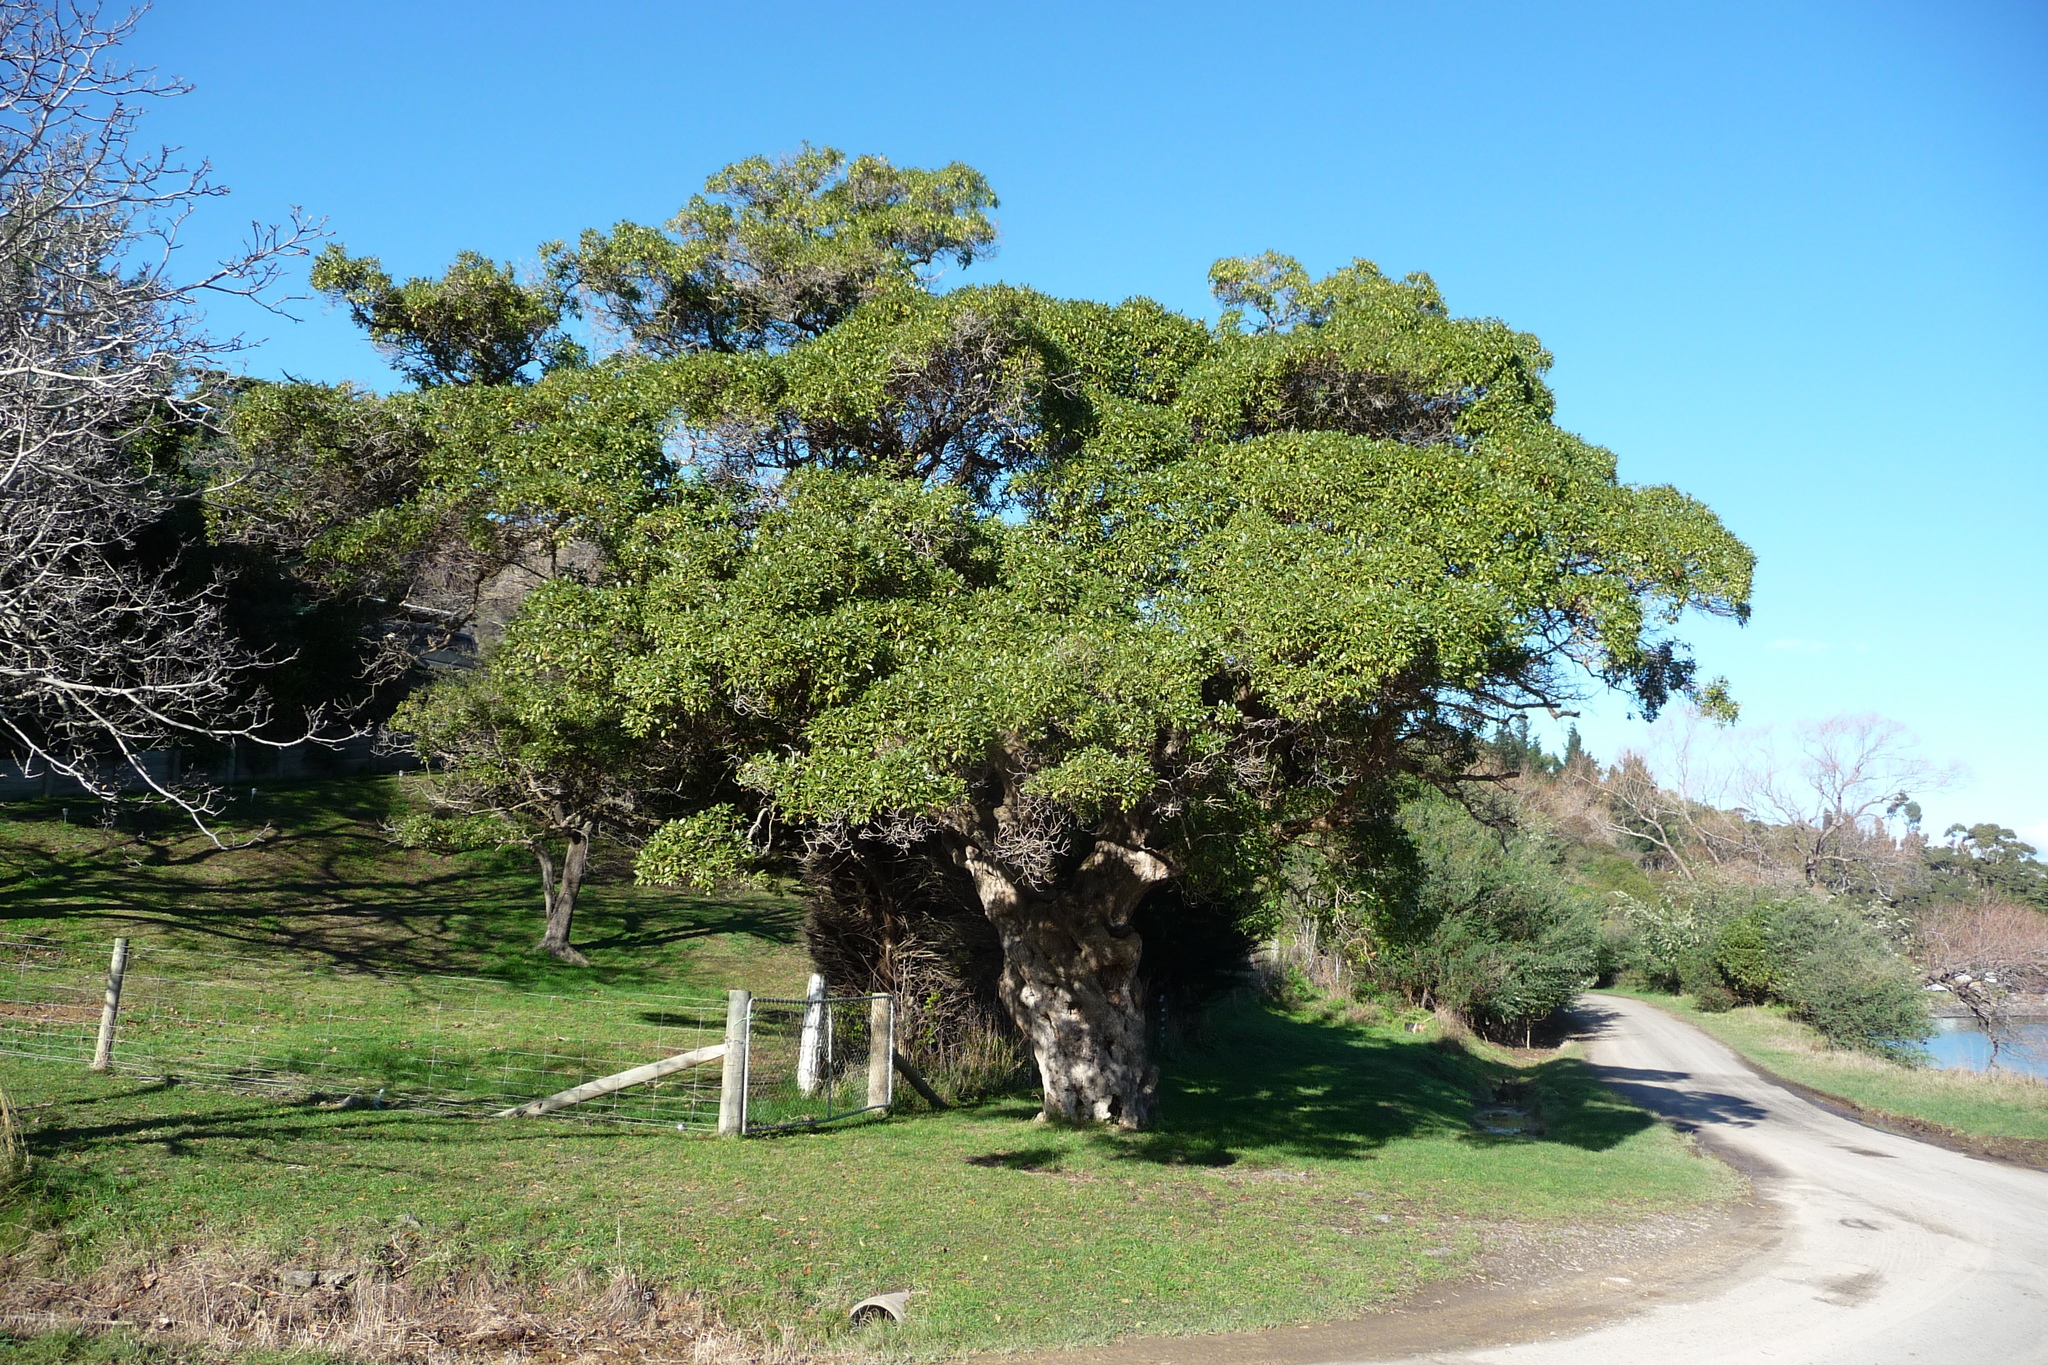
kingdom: Plantae
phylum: Tracheophyta
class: Magnoliopsida
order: Lamiales
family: Scrophulariaceae
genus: Myoporum
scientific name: Myoporum laetum
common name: Ngaio tree
